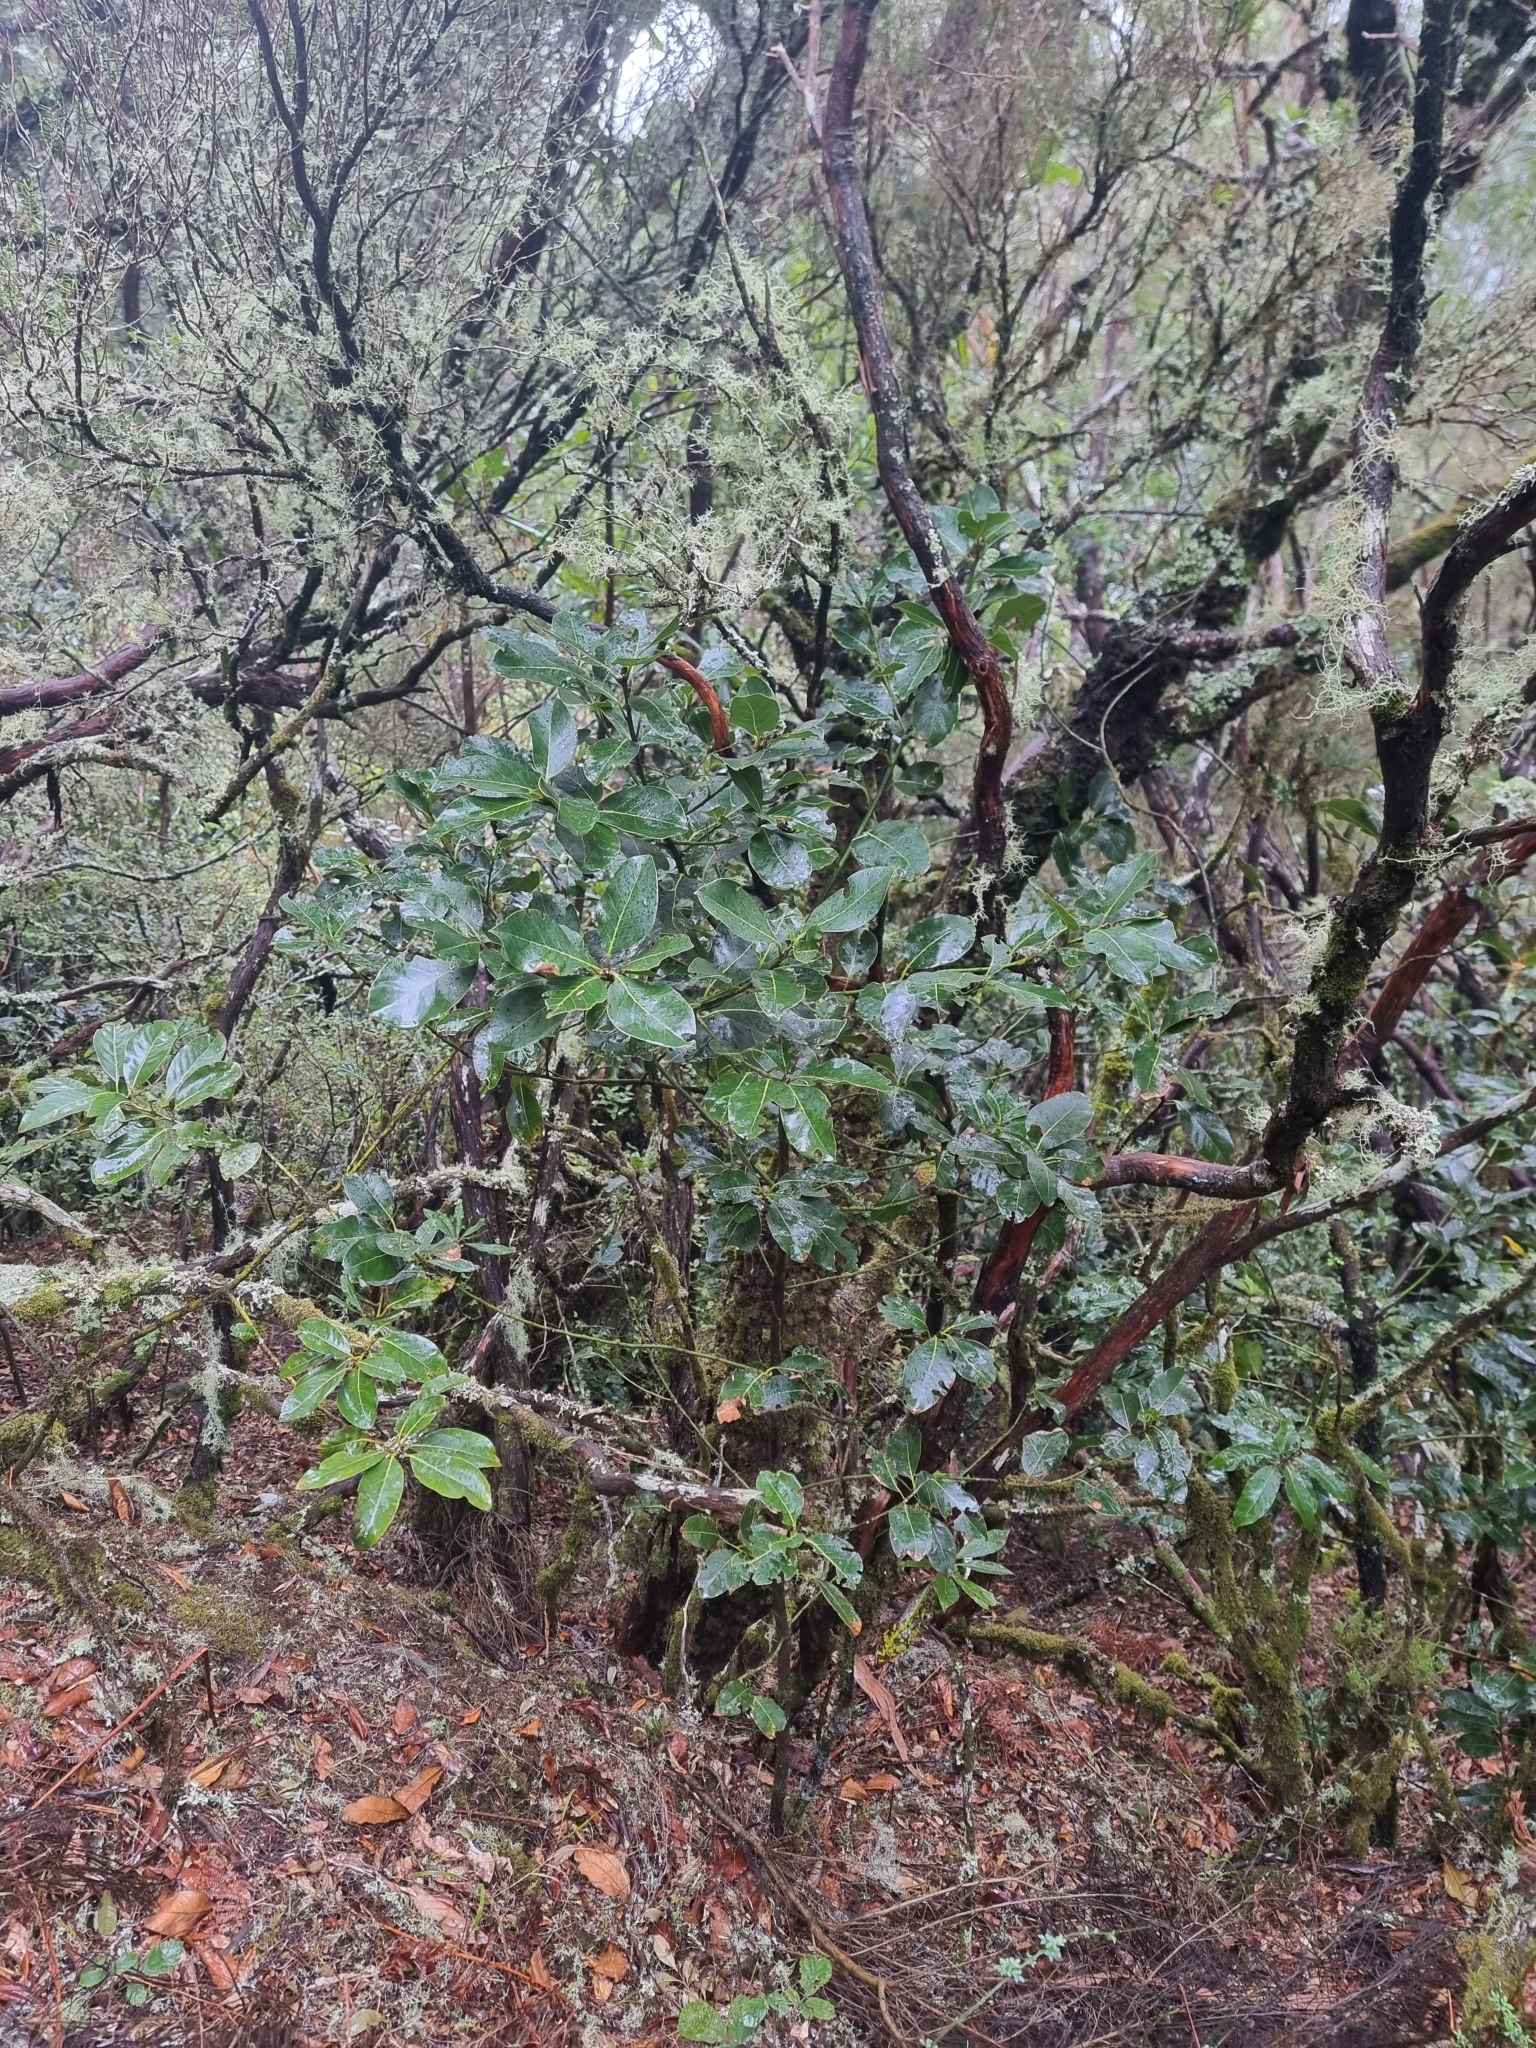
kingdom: Plantae
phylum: Tracheophyta
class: Magnoliopsida
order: Laurales
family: Lauraceae
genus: Laurus
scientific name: Laurus novocanariensis
